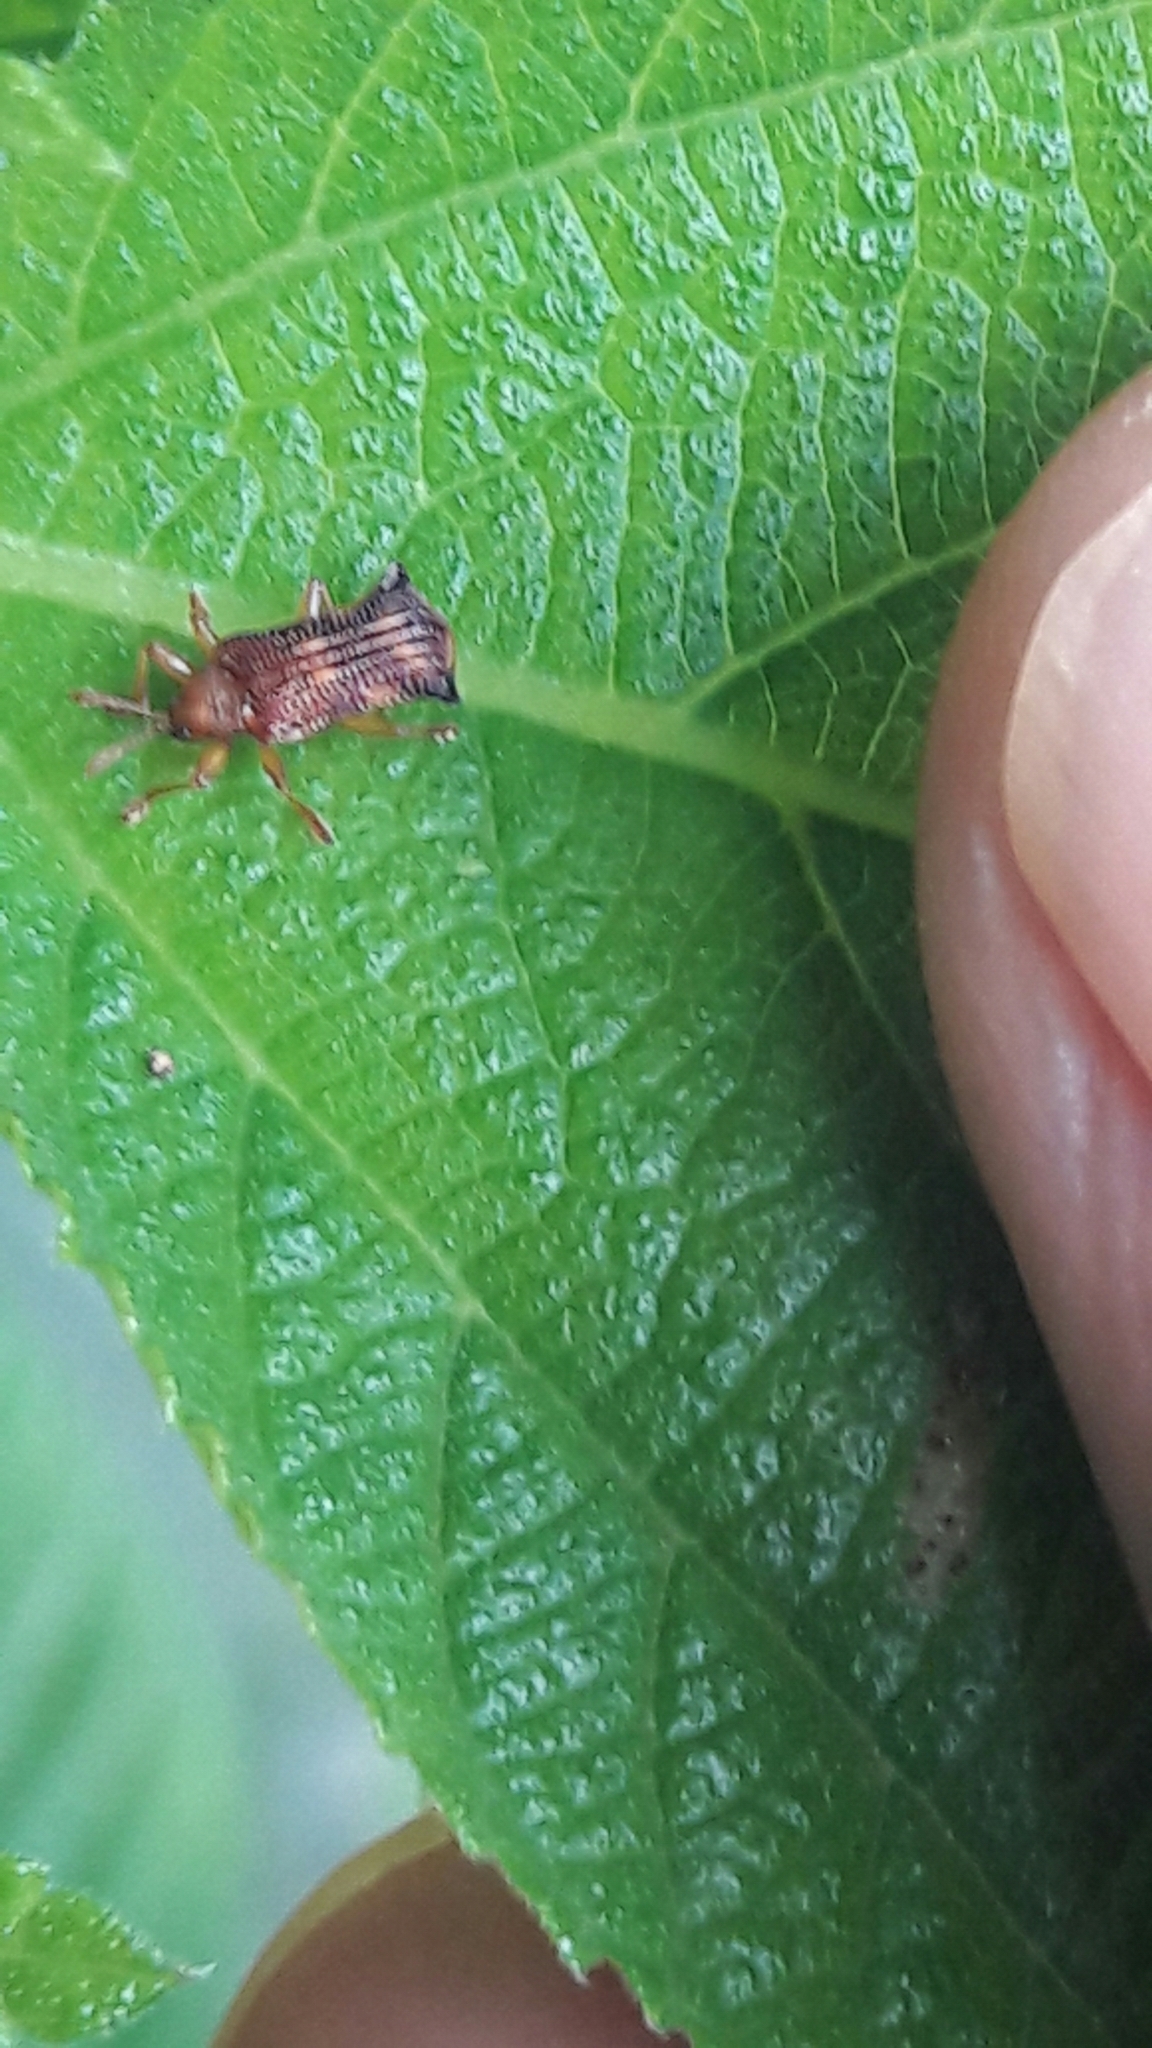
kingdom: Animalia
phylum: Arthropoda
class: Insecta
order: Coleoptera
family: Chrysomelidae
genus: Uroplata
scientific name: Uroplata fulvopustulata
